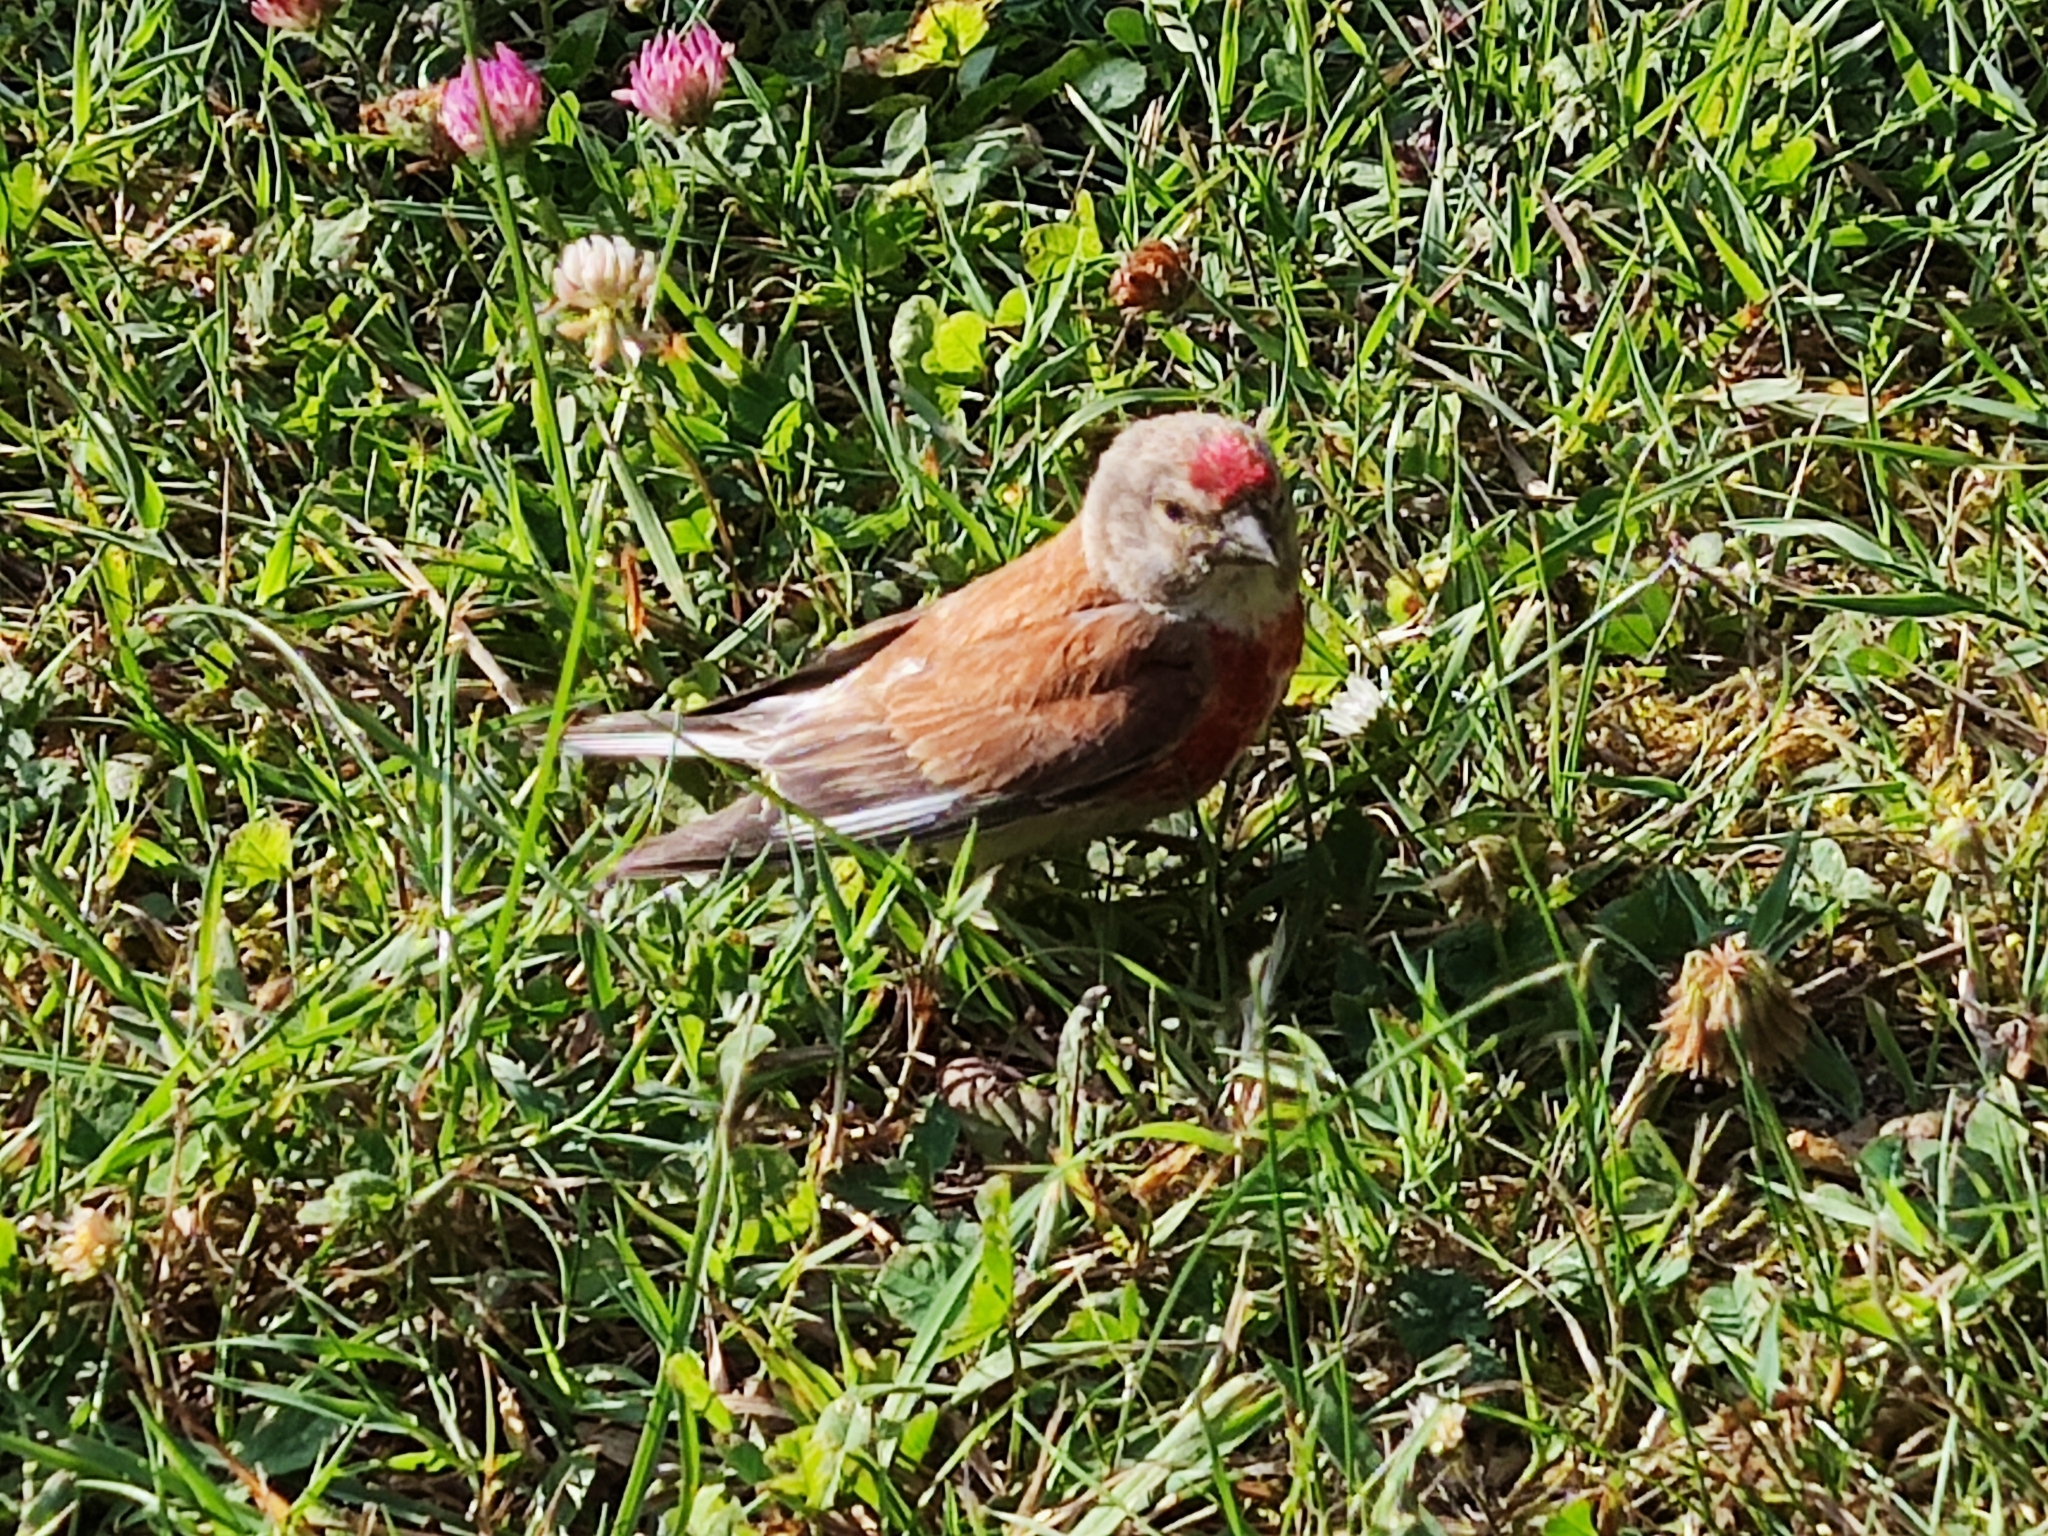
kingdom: Animalia
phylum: Chordata
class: Aves
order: Passeriformes
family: Fringillidae
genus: Linaria
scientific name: Linaria cannabina
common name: Common linnet
